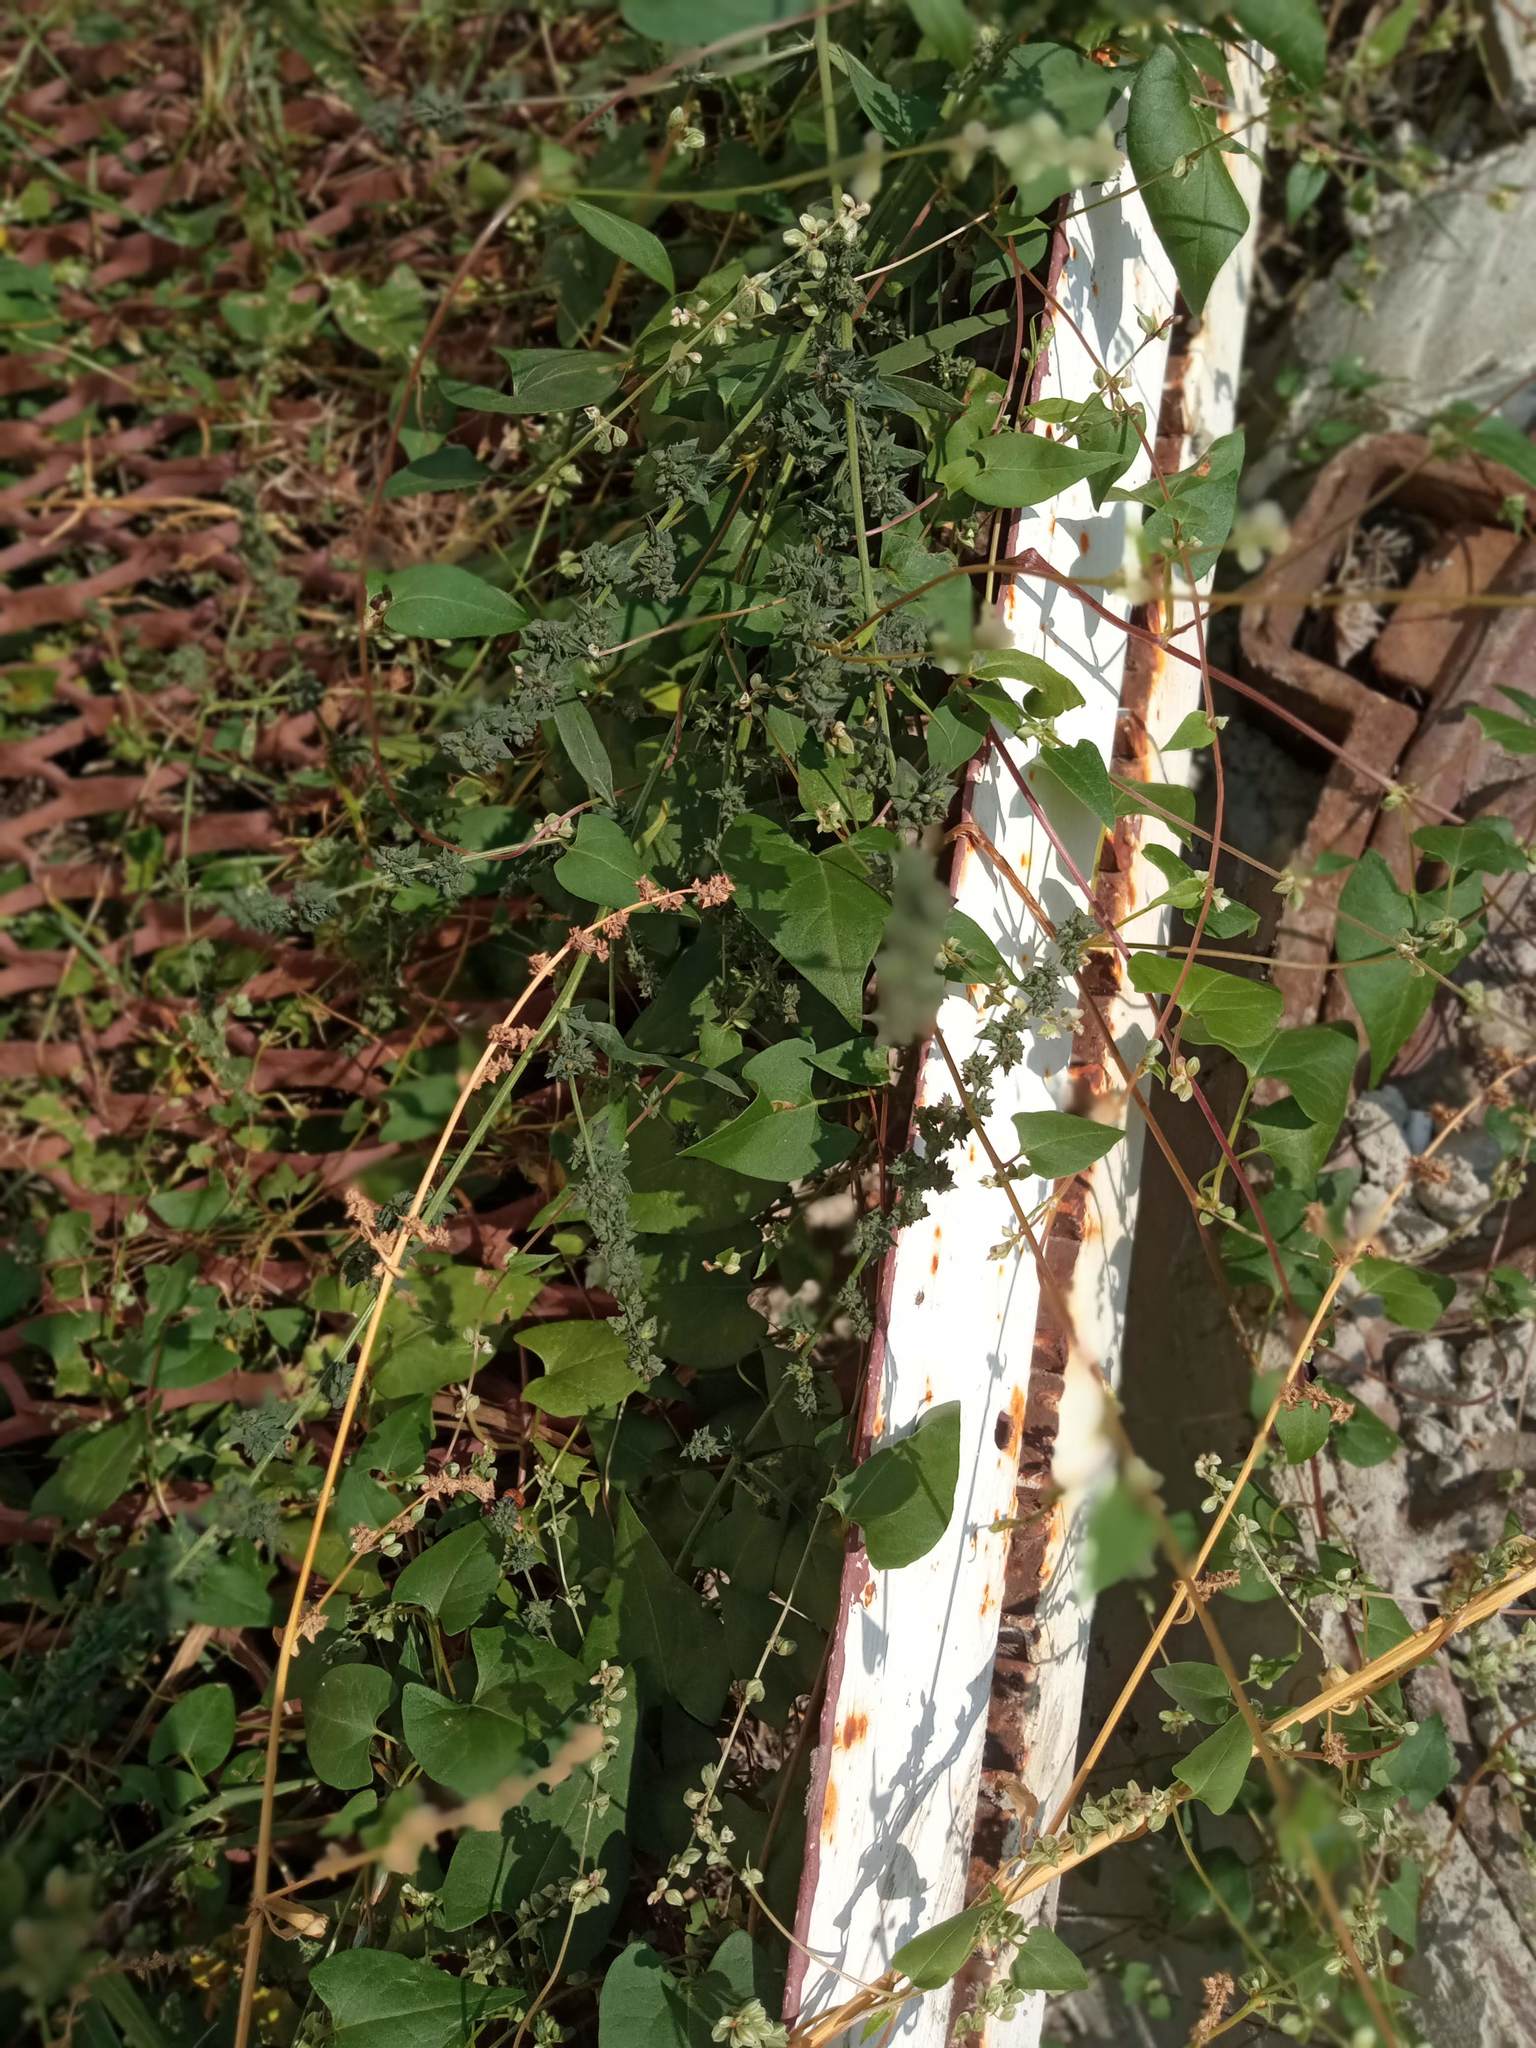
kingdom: Plantae
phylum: Tracheophyta
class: Magnoliopsida
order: Caryophyllales
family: Amaranthaceae
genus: Atriplex
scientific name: Atriplex patula
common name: Common orache
